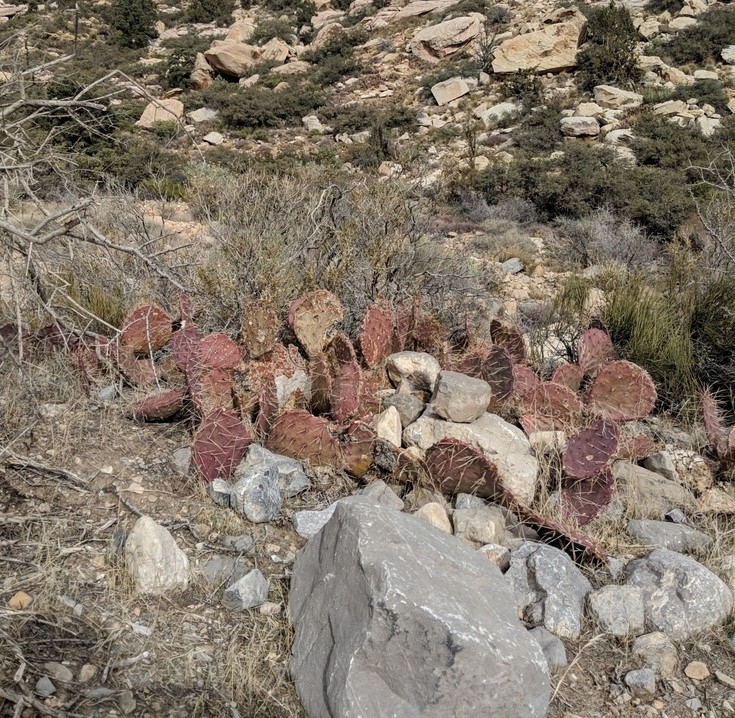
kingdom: Plantae
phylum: Tracheophyta
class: Magnoliopsida
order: Caryophyllales
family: Cactaceae
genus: Opuntia
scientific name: Opuntia phaeacantha
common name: New mexico prickly-pear
